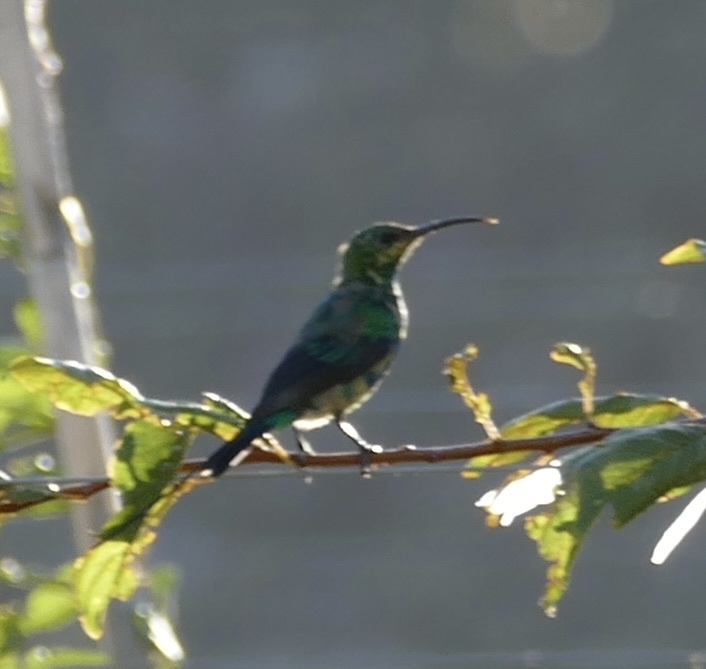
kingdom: Animalia
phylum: Chordata
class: Aves
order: Passeriformes
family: Nectariniidae
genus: Nectarinia
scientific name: Nectarinia famosa
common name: Malachite sunbird
